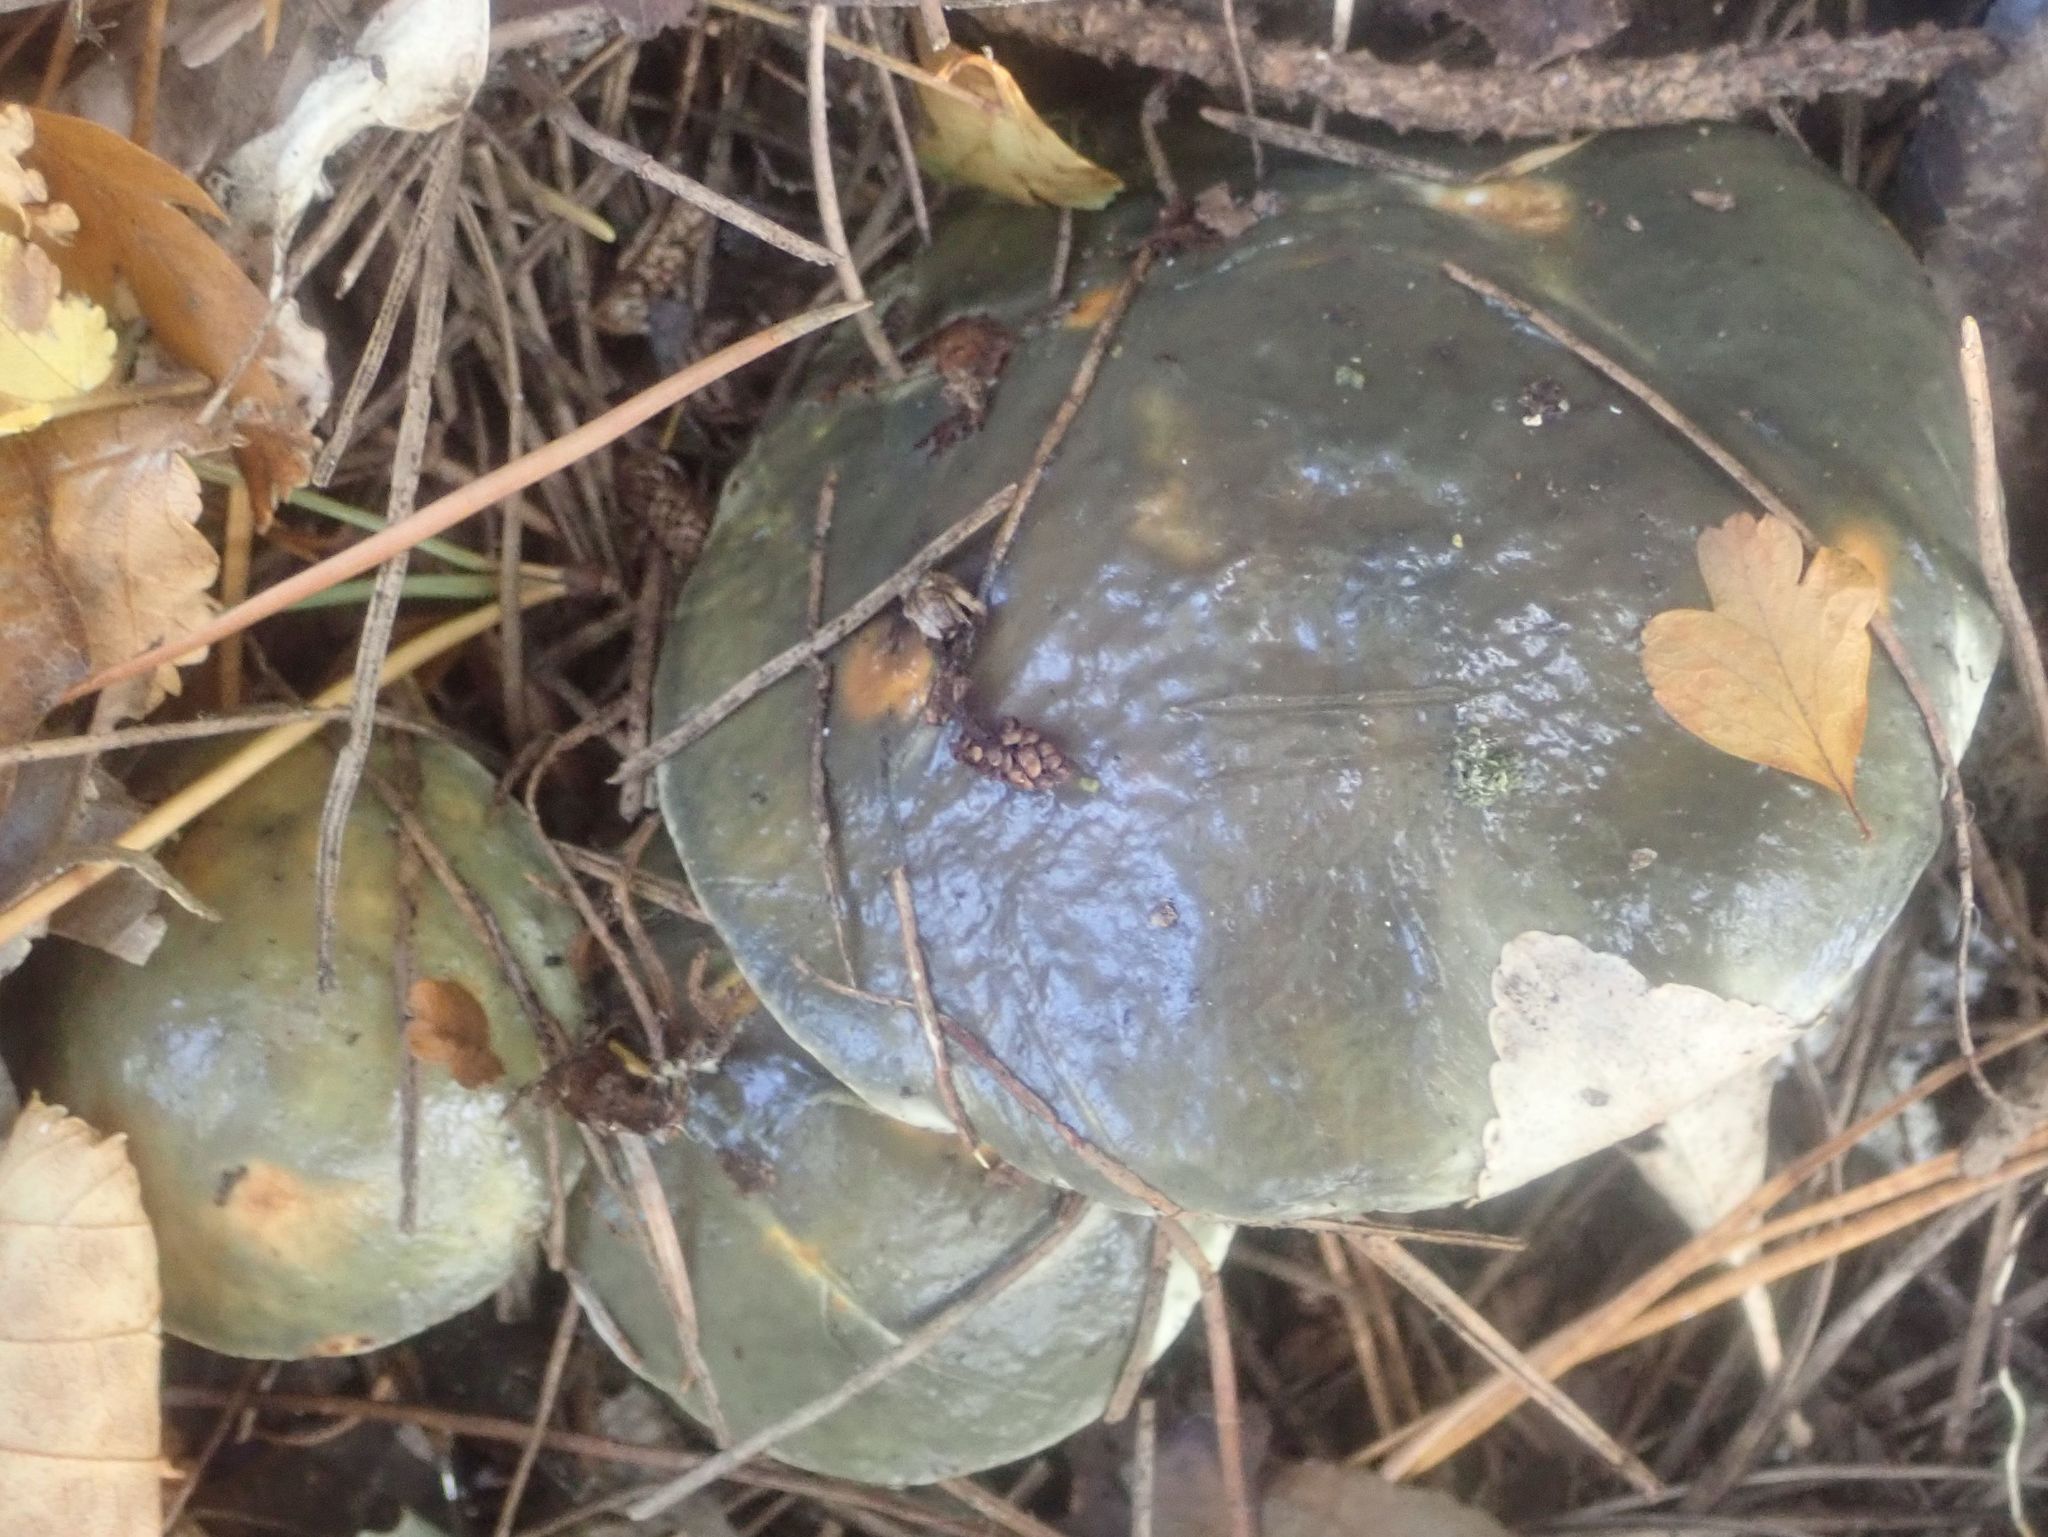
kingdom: Fungi
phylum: Basidiomycota
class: Agaricomycetes
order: Boletales
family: Suillaceae
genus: Suillus
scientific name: Suillus pungens
